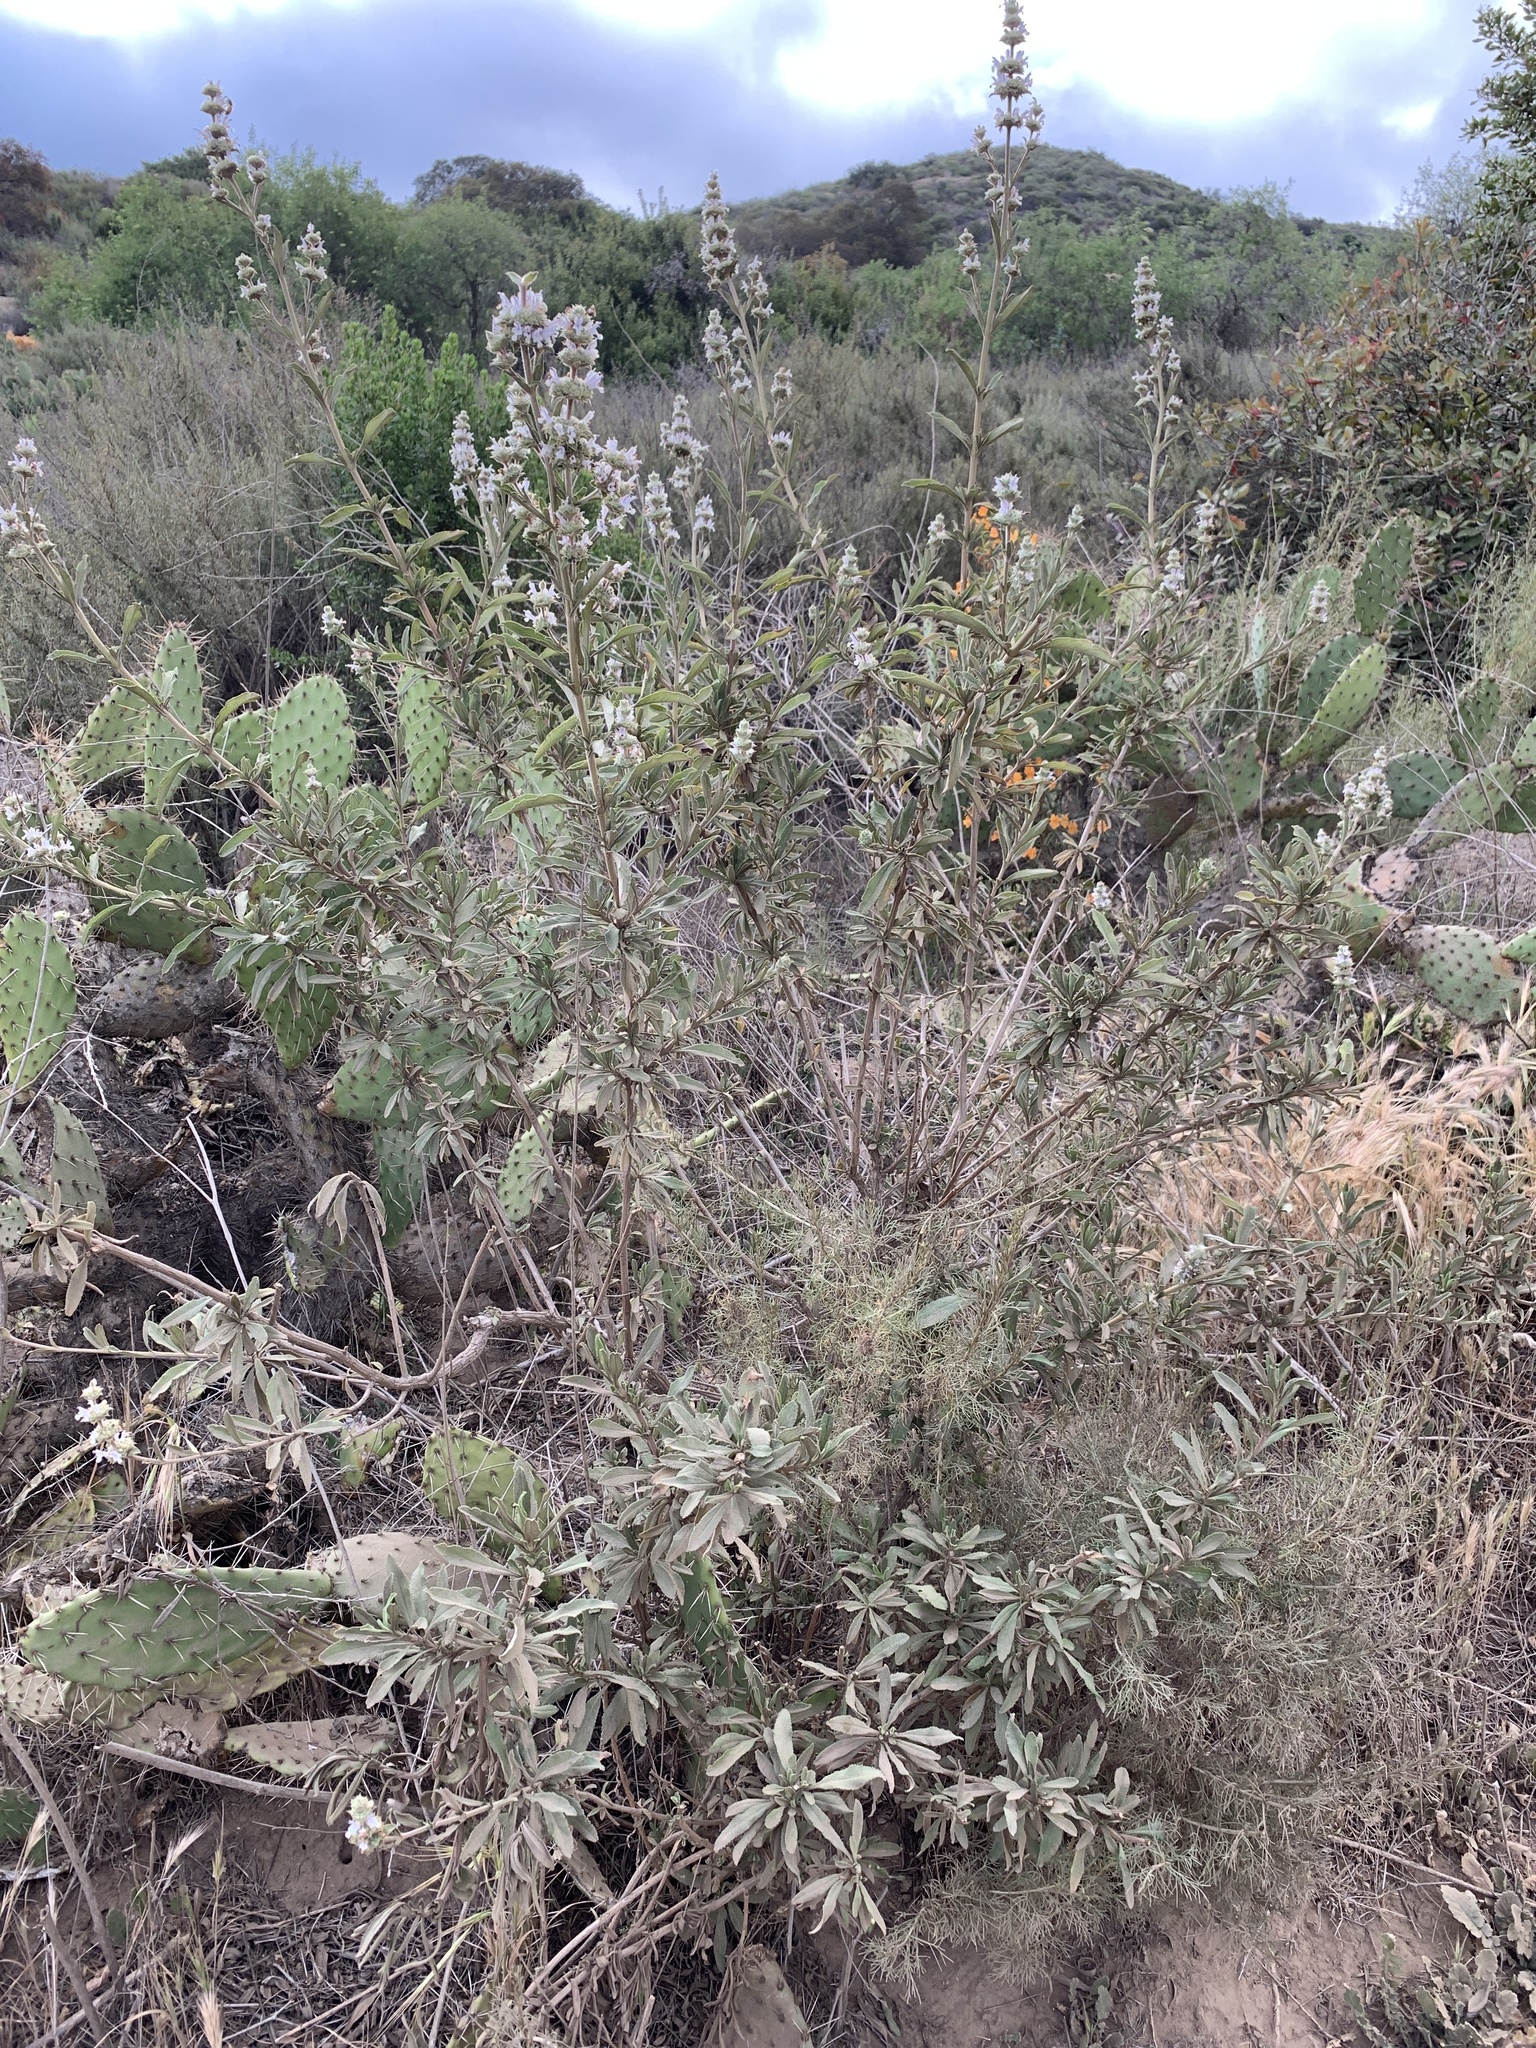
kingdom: Plantae
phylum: Tracheophyta
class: Magnoliopsida
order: Lamiales
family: Lamiaceae
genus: Salvia
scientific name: Salvia
